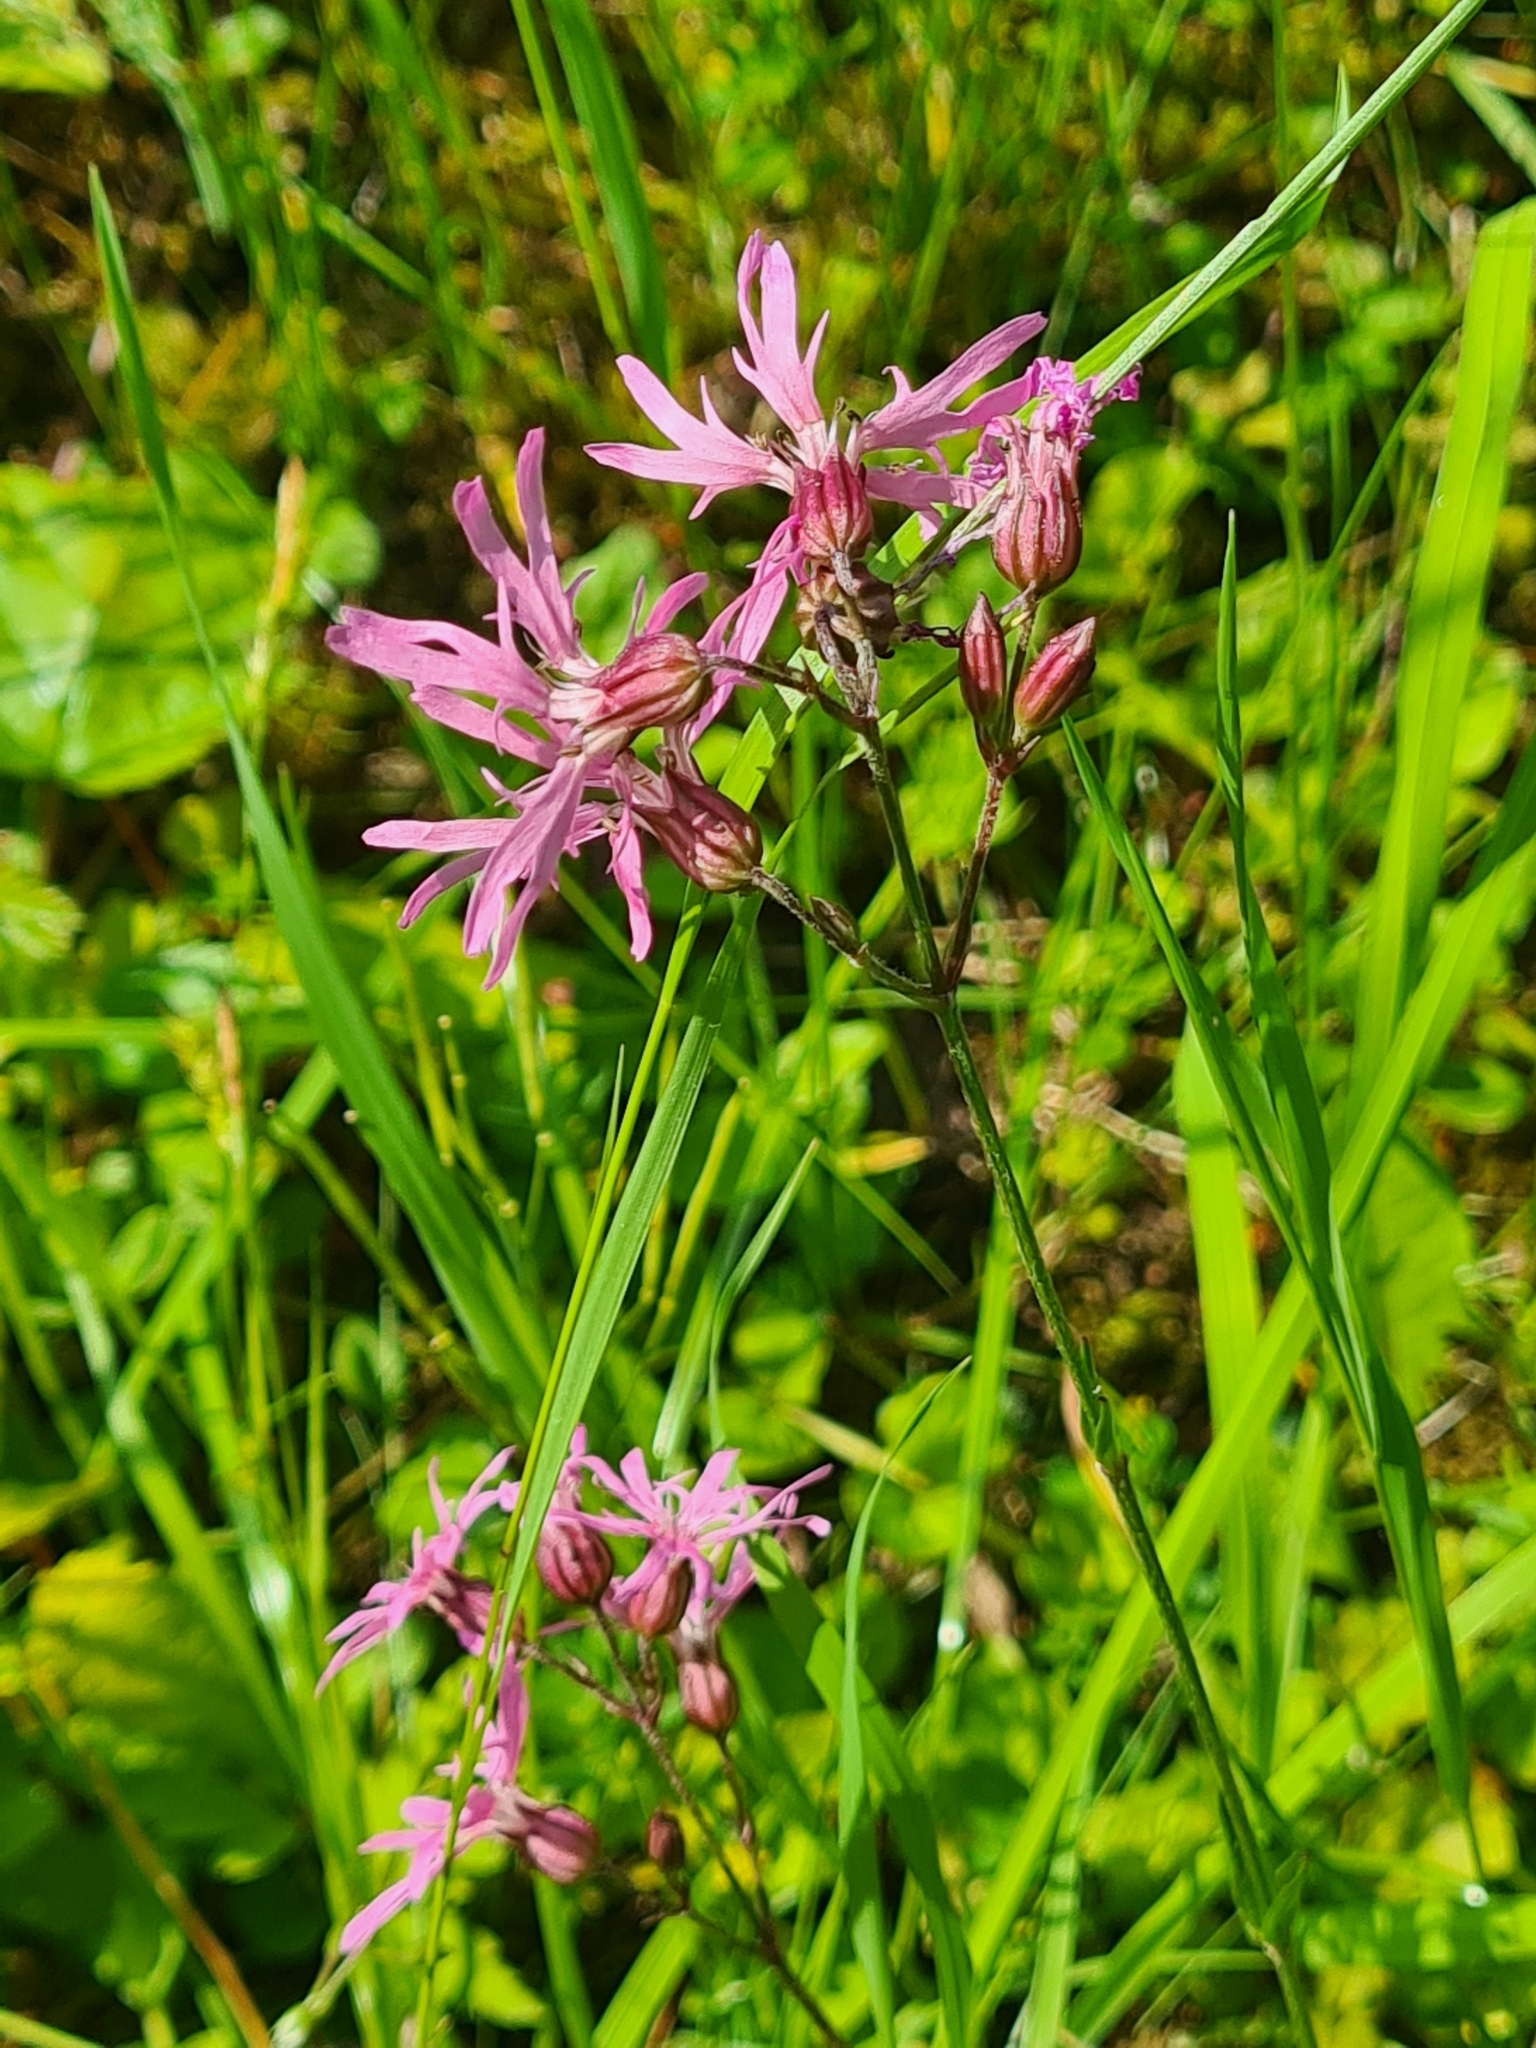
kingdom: Plantae
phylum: Tracheophyta
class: Magnoliopsida
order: Caryophyllales
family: Caryophyllaceae
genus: Silene
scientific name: Silene flos-cuculi
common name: Ragged-robin
